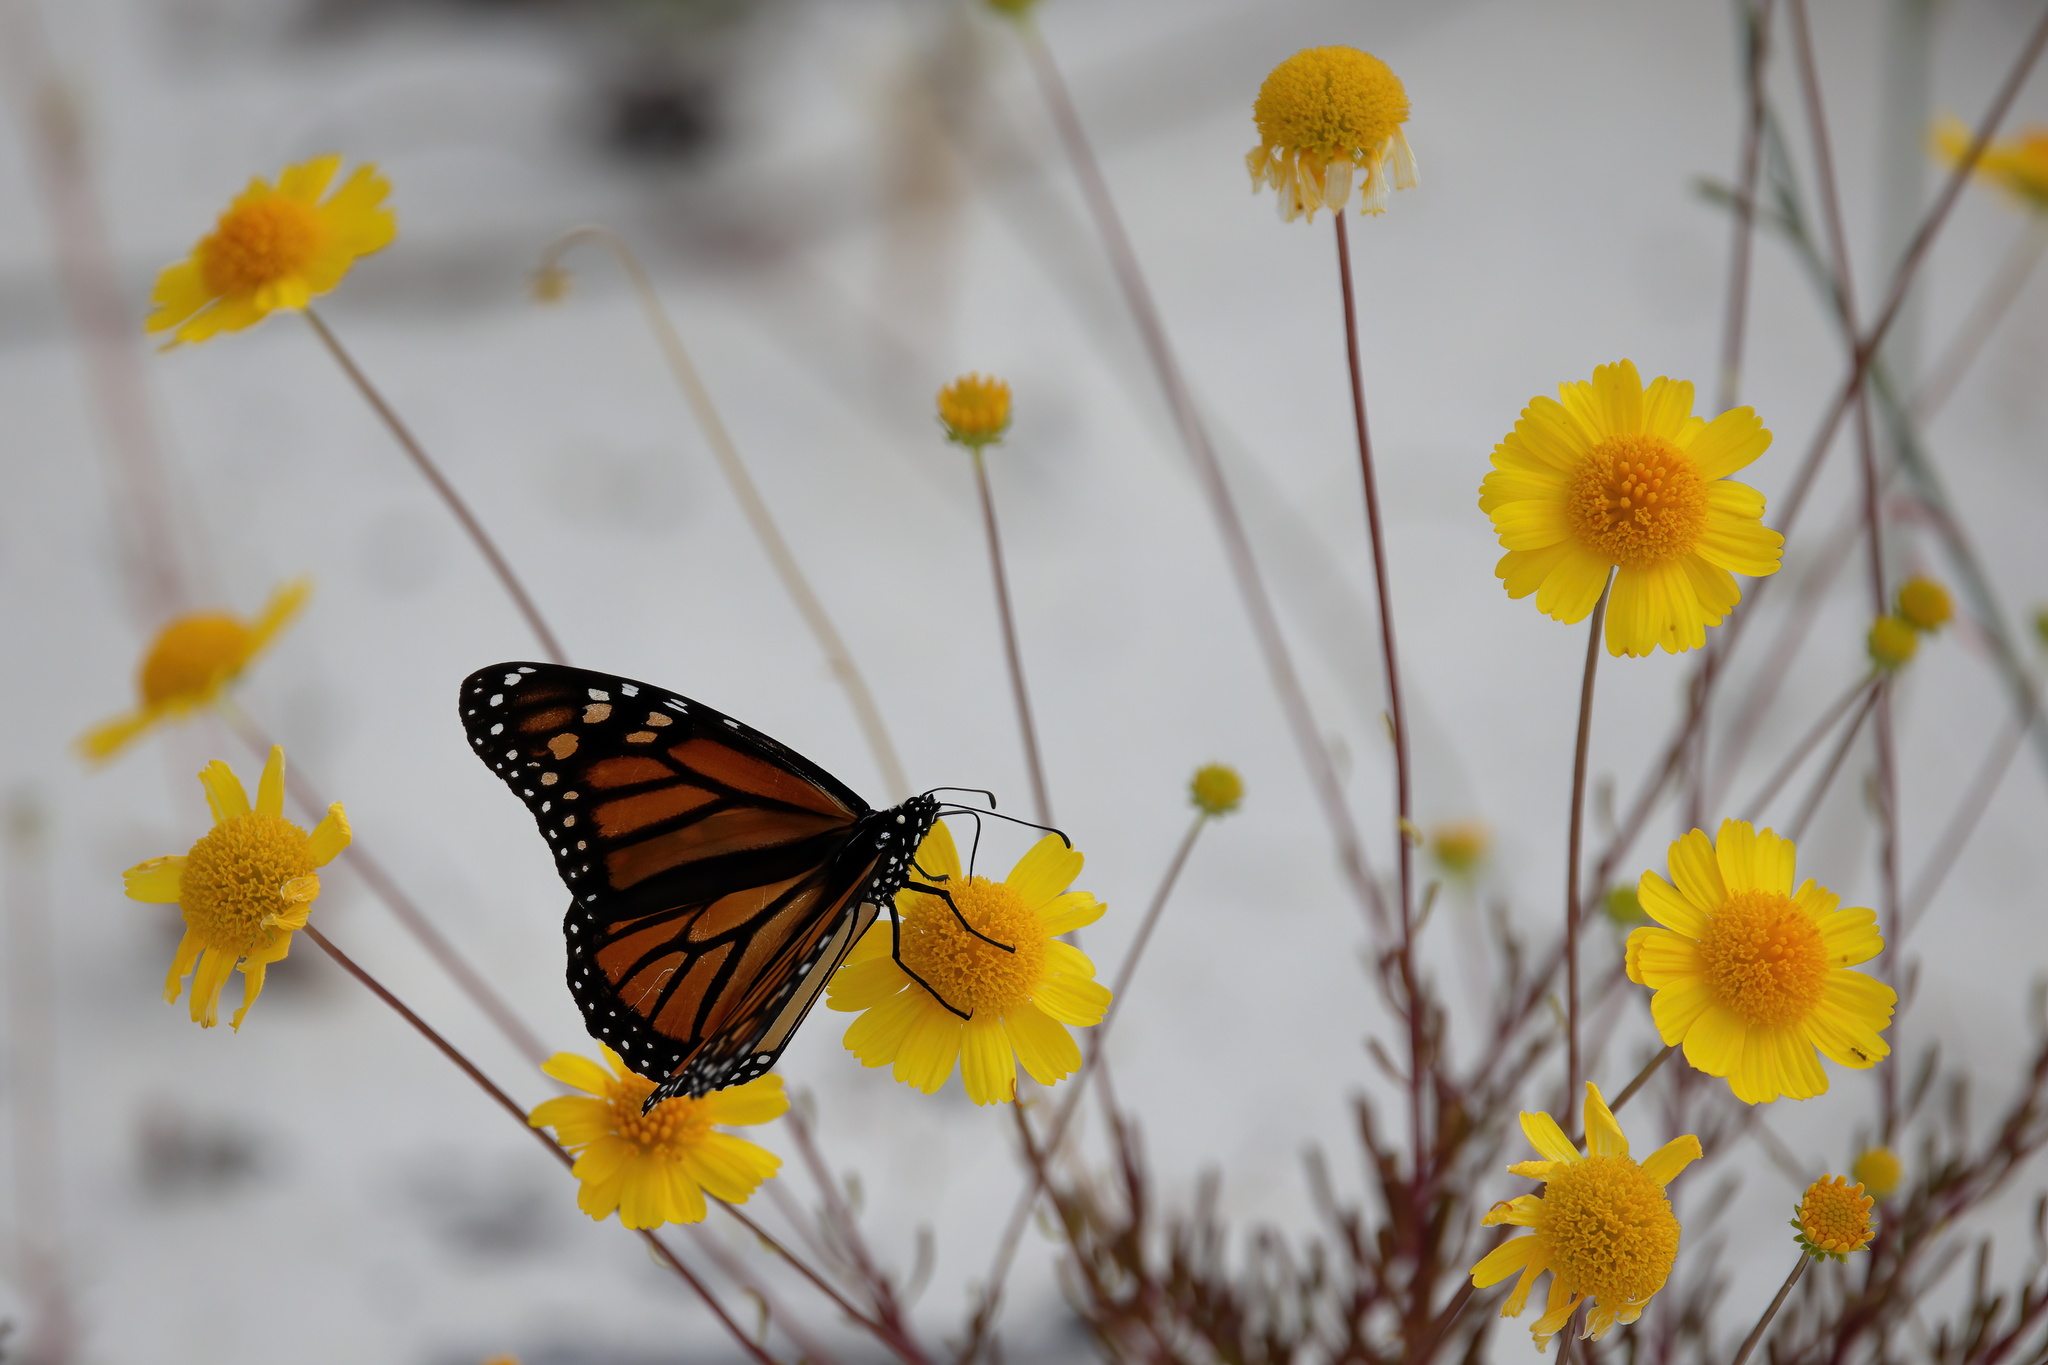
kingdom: Animalia
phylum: Arthropoda
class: Insecta
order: Lepidoptera
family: Nymphalidae
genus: Danaus
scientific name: Danaus plexippus
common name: Monarch
